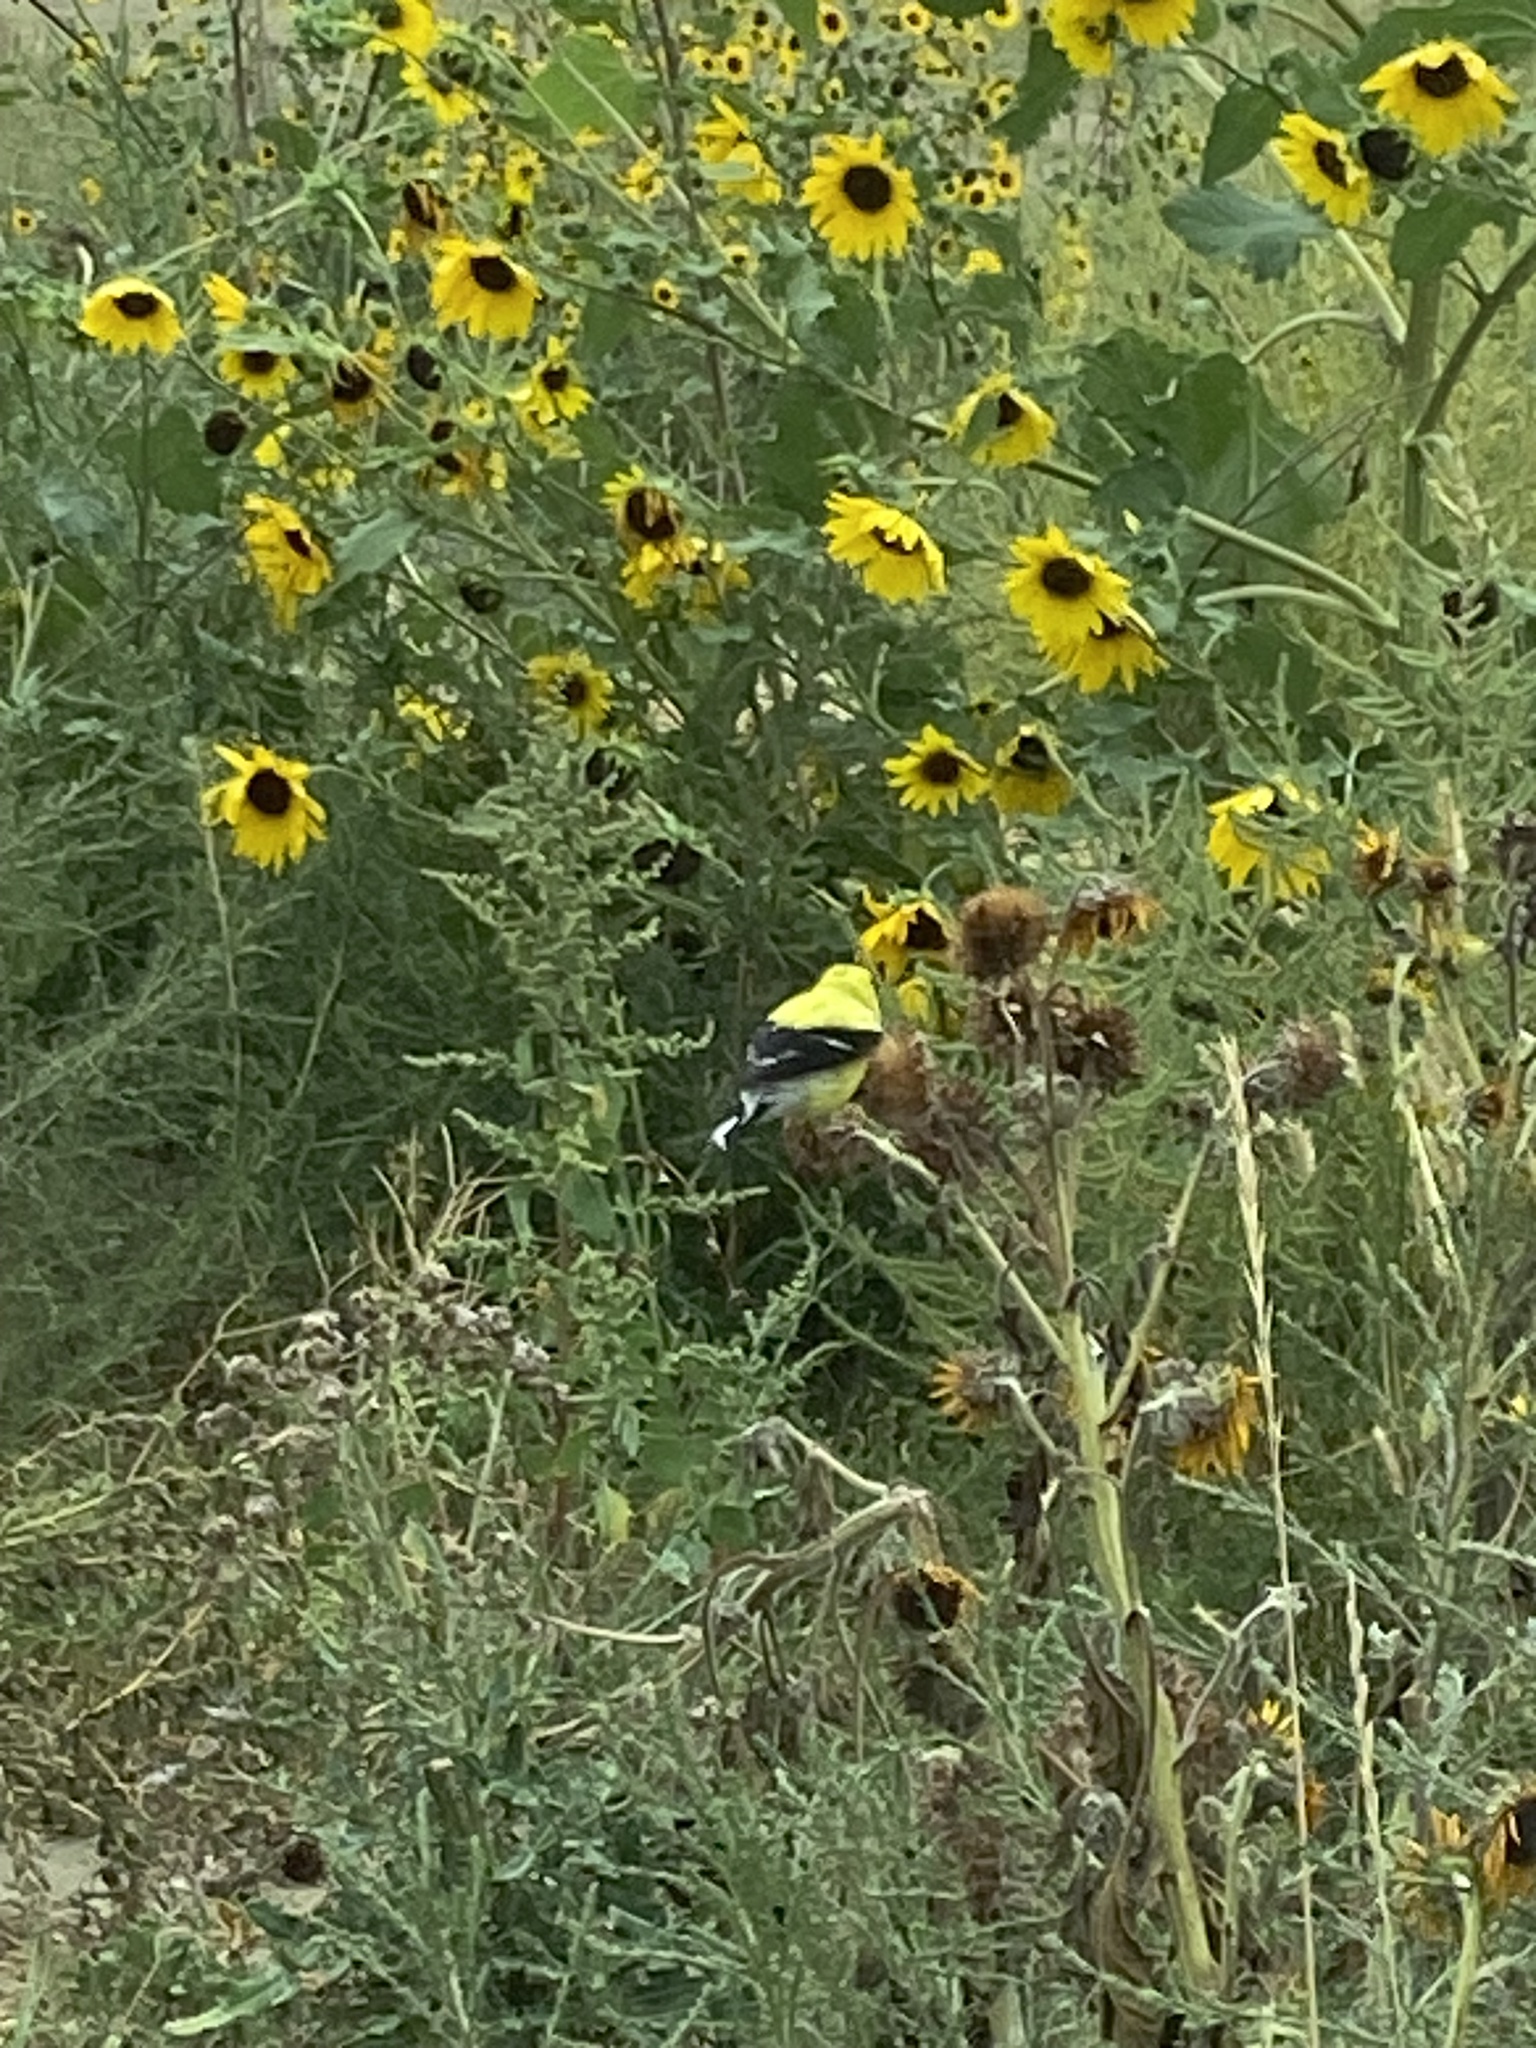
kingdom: Animalia
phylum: Chordata
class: Aves
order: Passeriformes
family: Fringillidae
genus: Spinus
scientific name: Spinus tristis
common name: American goldfinch
